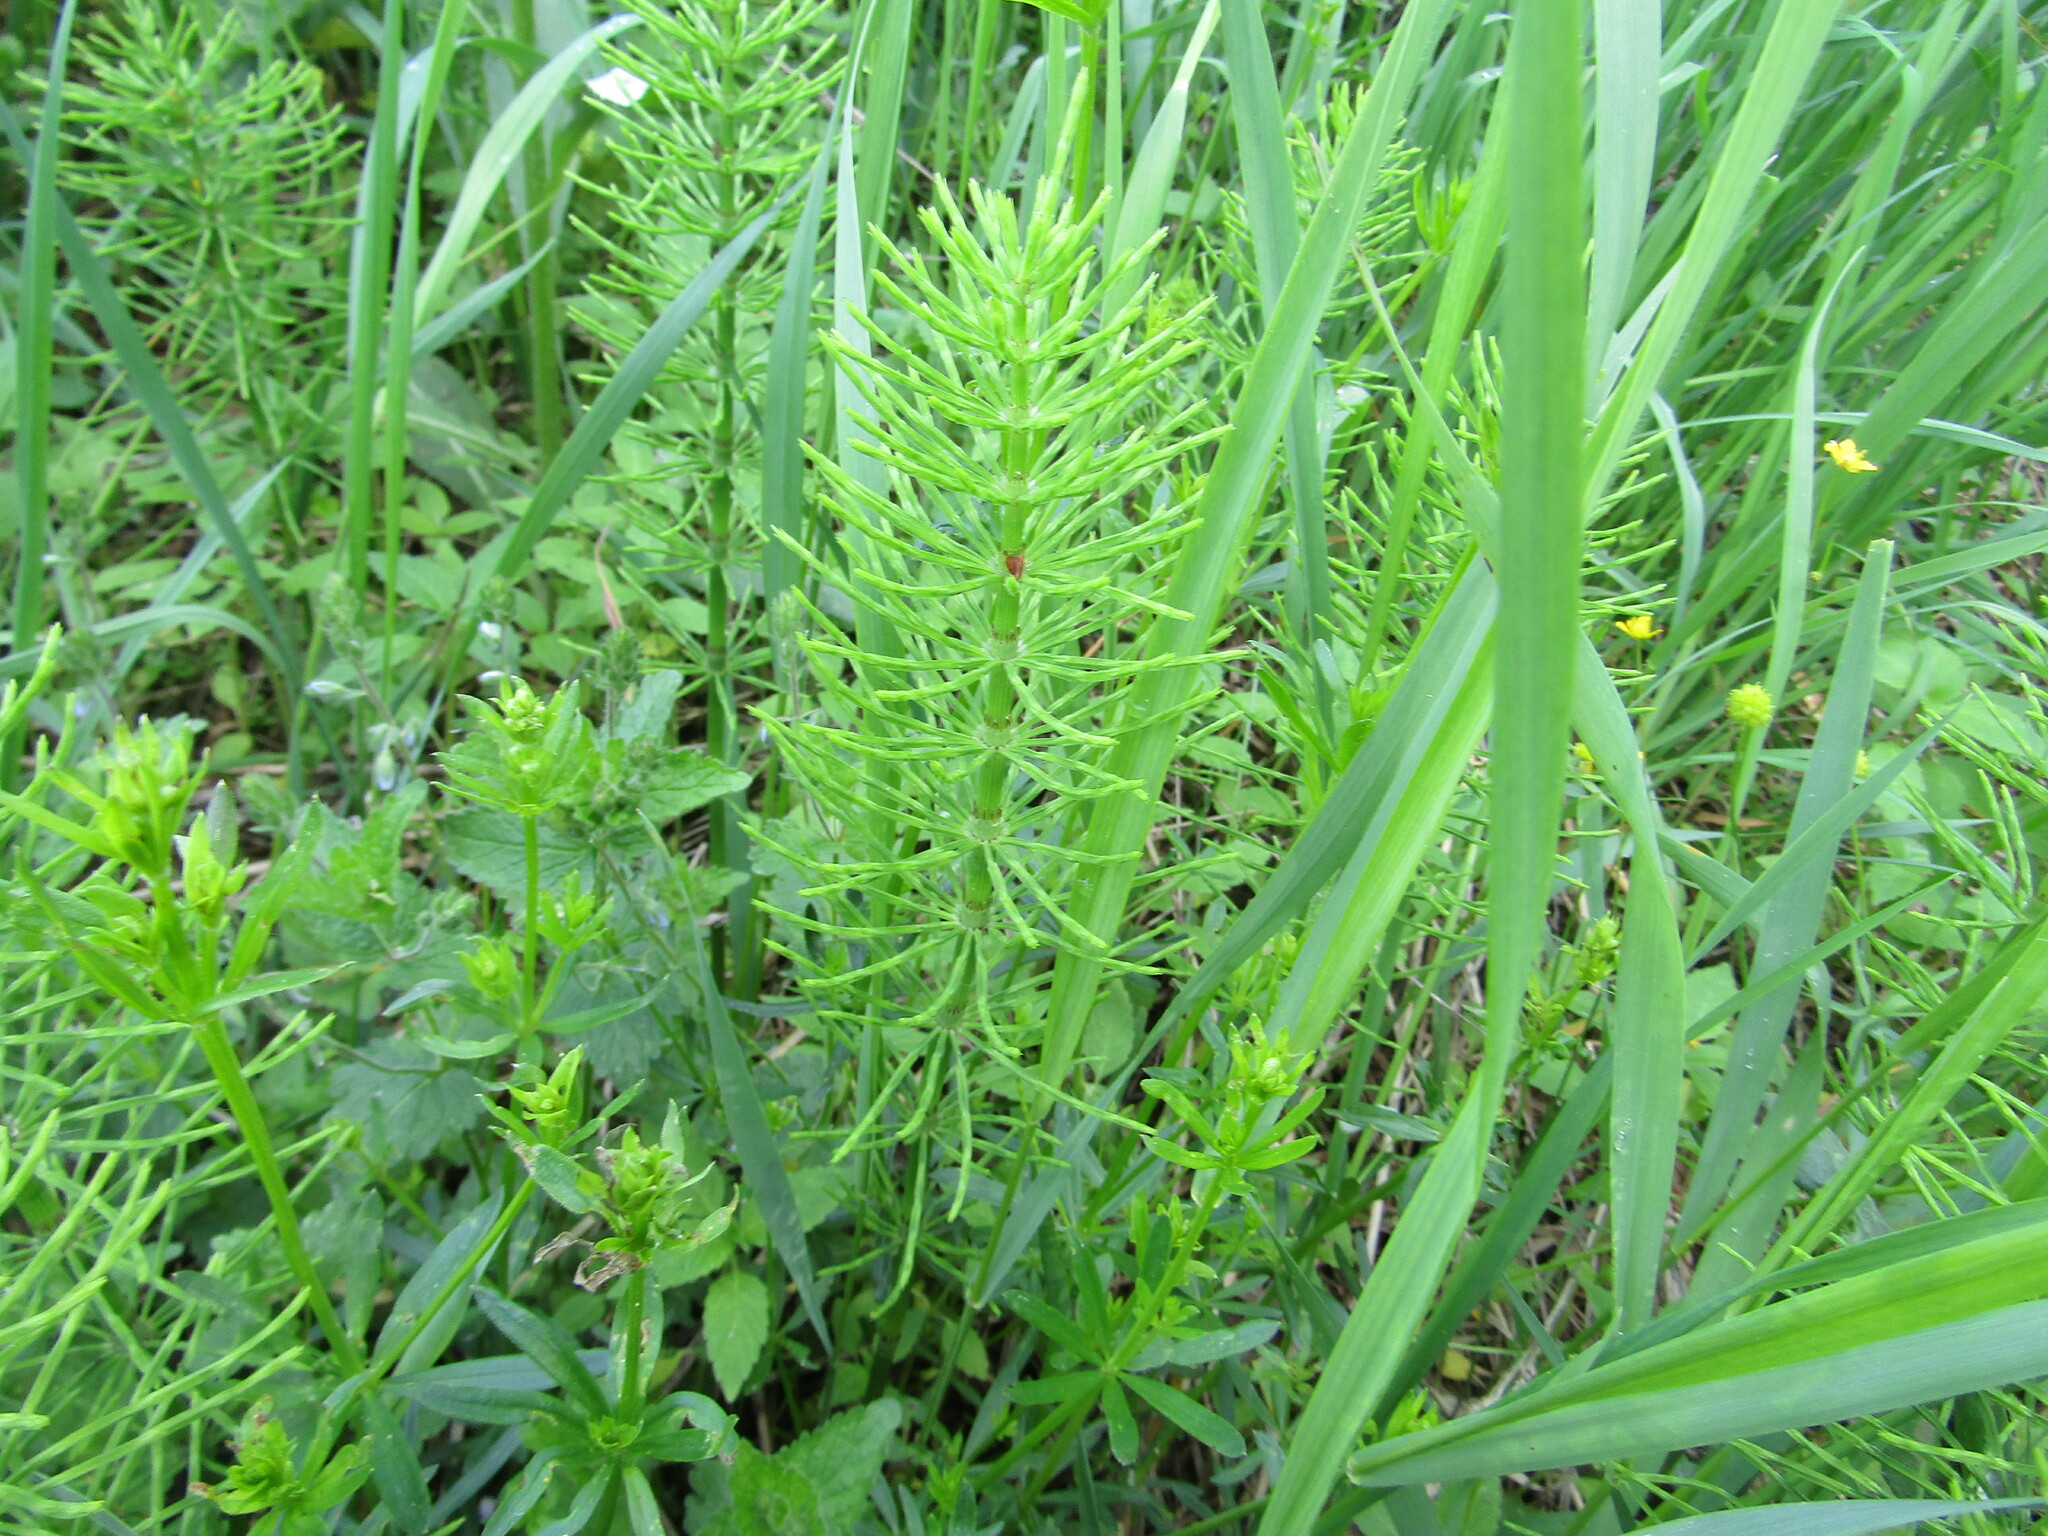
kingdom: Plantae
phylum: Tracheophyta
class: Polypodiopsida
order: Equisetales
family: Equisetaceae
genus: Equisetum
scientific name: Equisetum arvense
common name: Field horsetail
